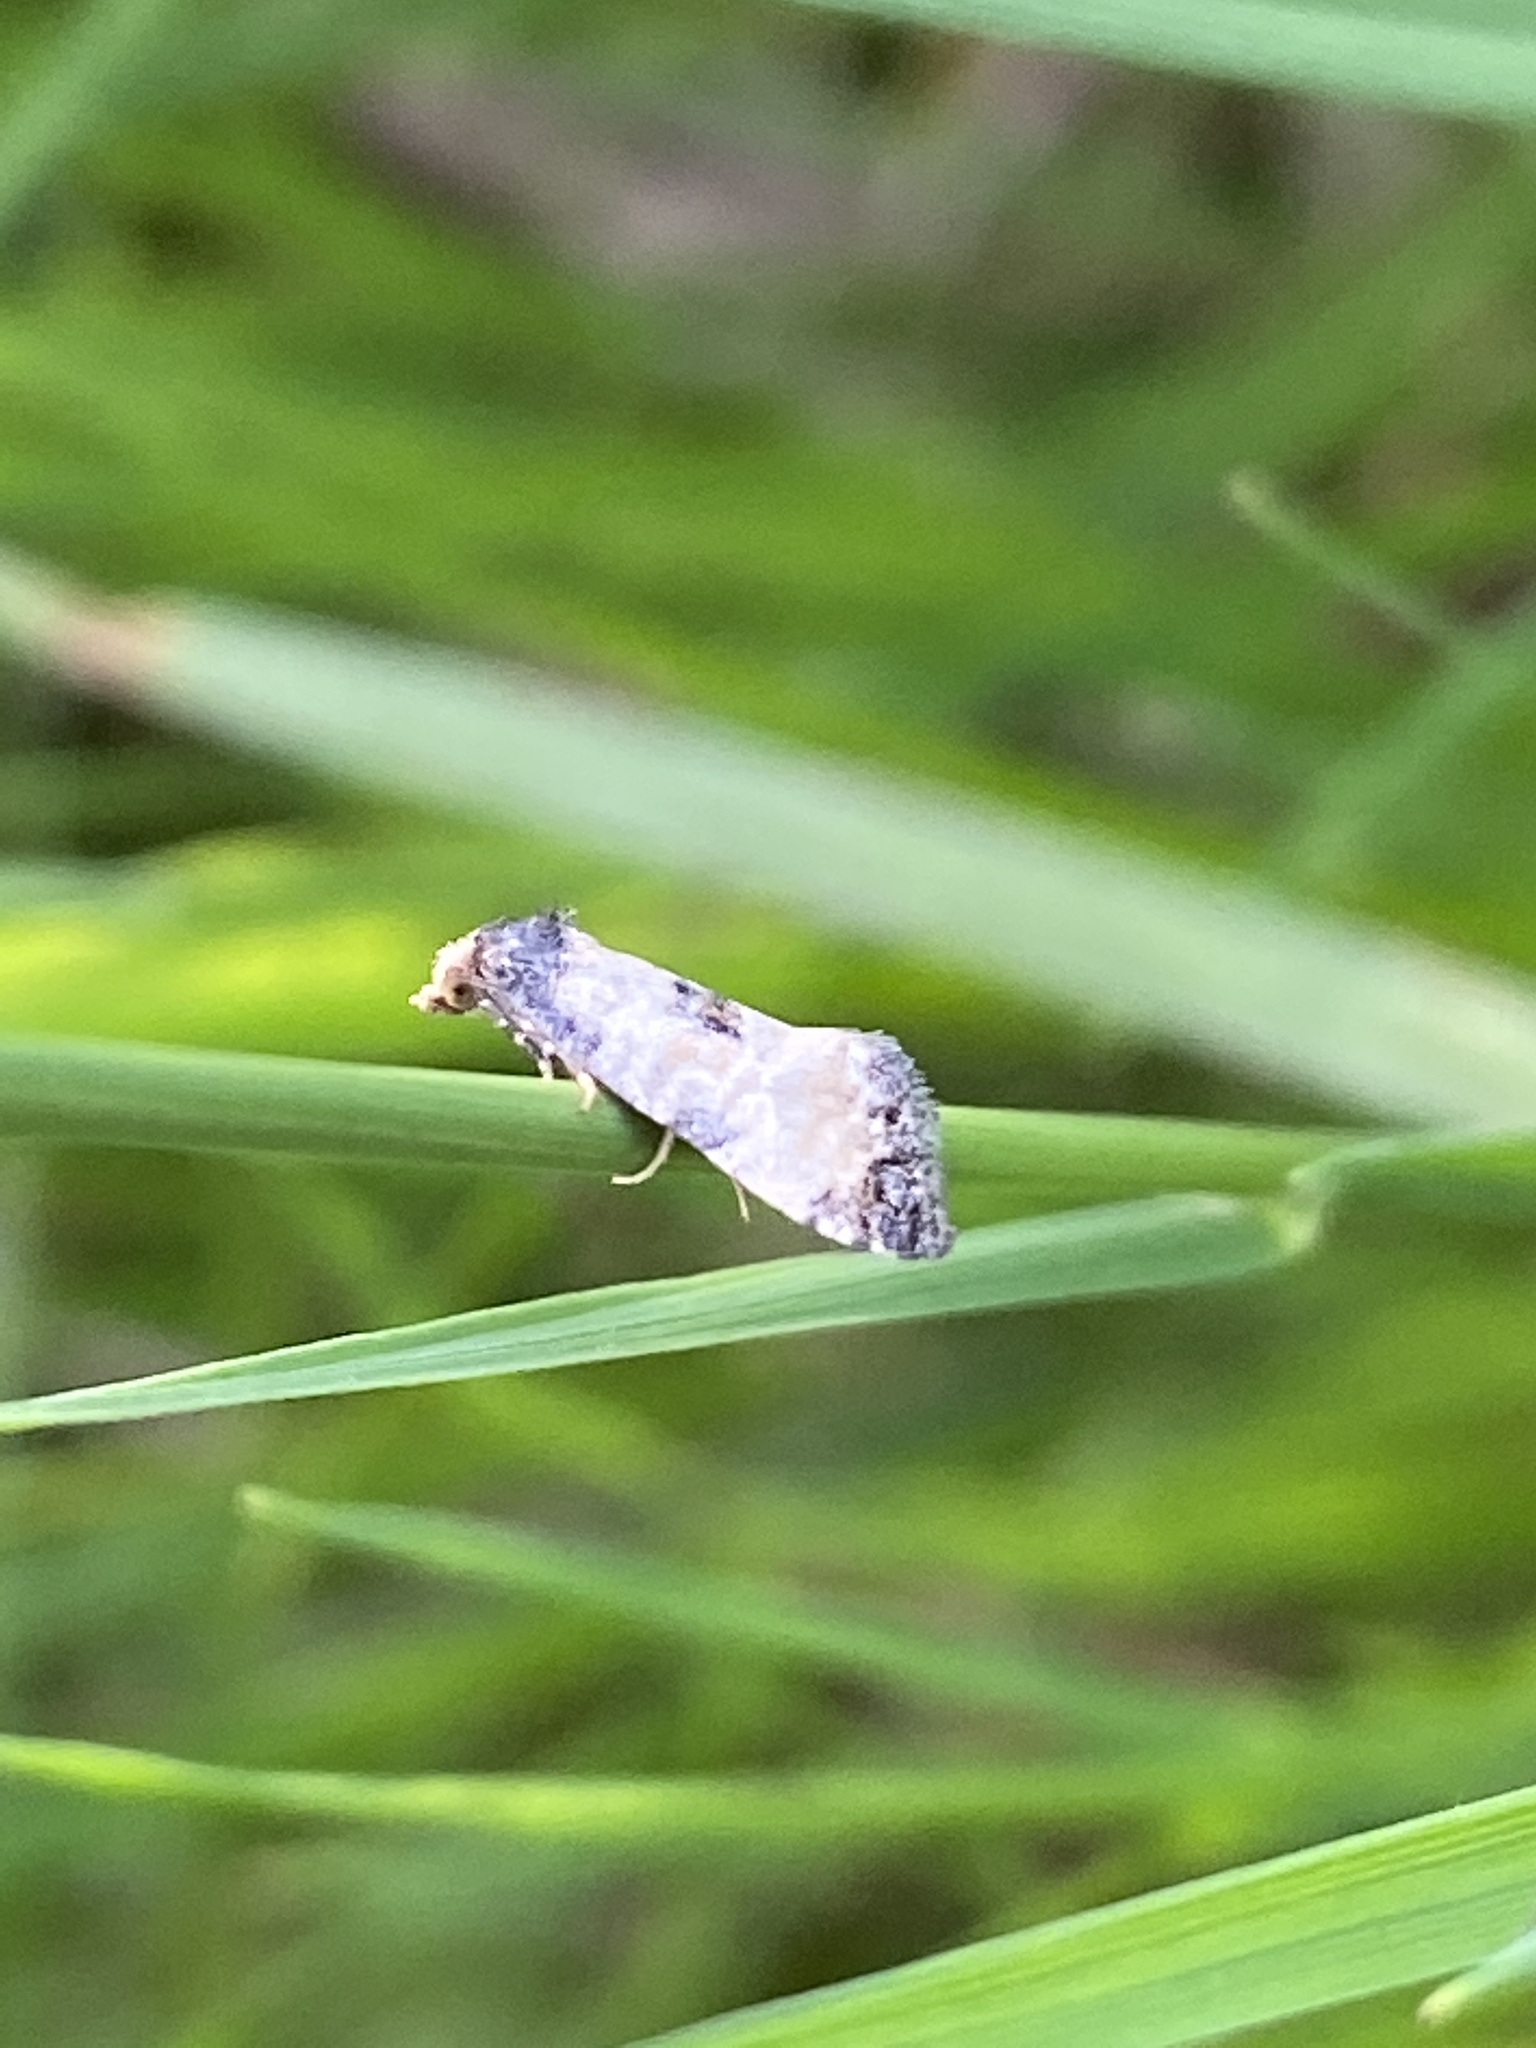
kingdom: Animalia
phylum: Arthropoda
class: Insecta
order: Lepidoptera
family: Tortricidae
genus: Cochylis
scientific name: Cochylis dubitana
